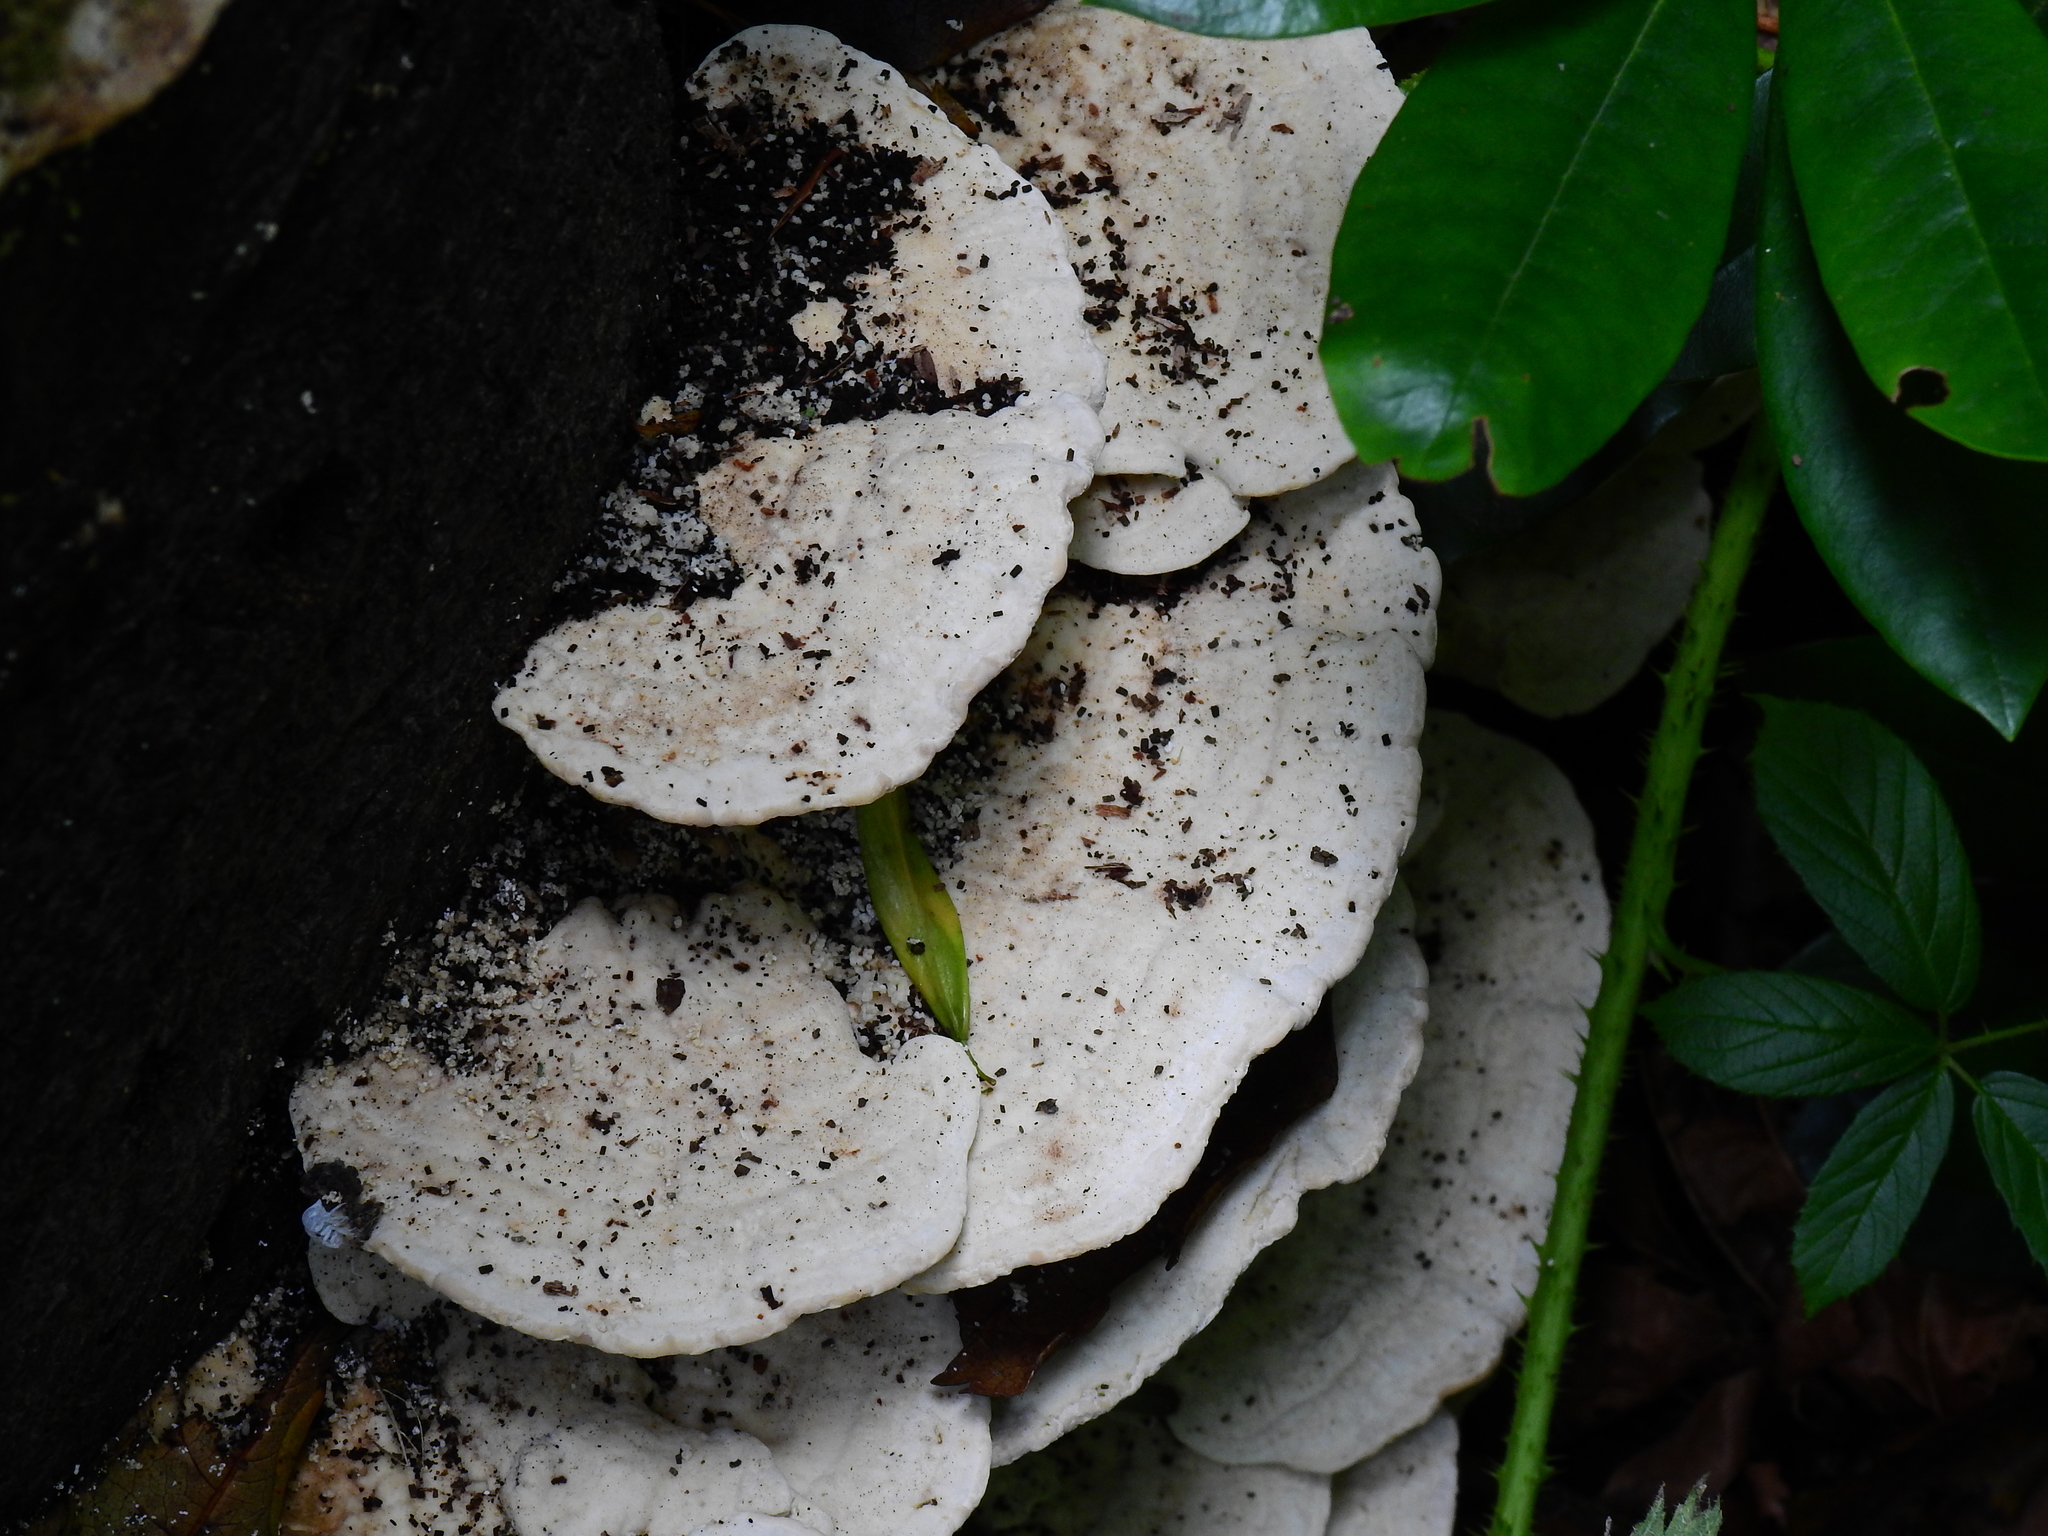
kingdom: Fungi
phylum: Basidiomycota
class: Agaricomycetes
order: Polyporales
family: Polyporaceae
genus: Trametes
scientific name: Trametes gibbosa
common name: Lumpy bracket
